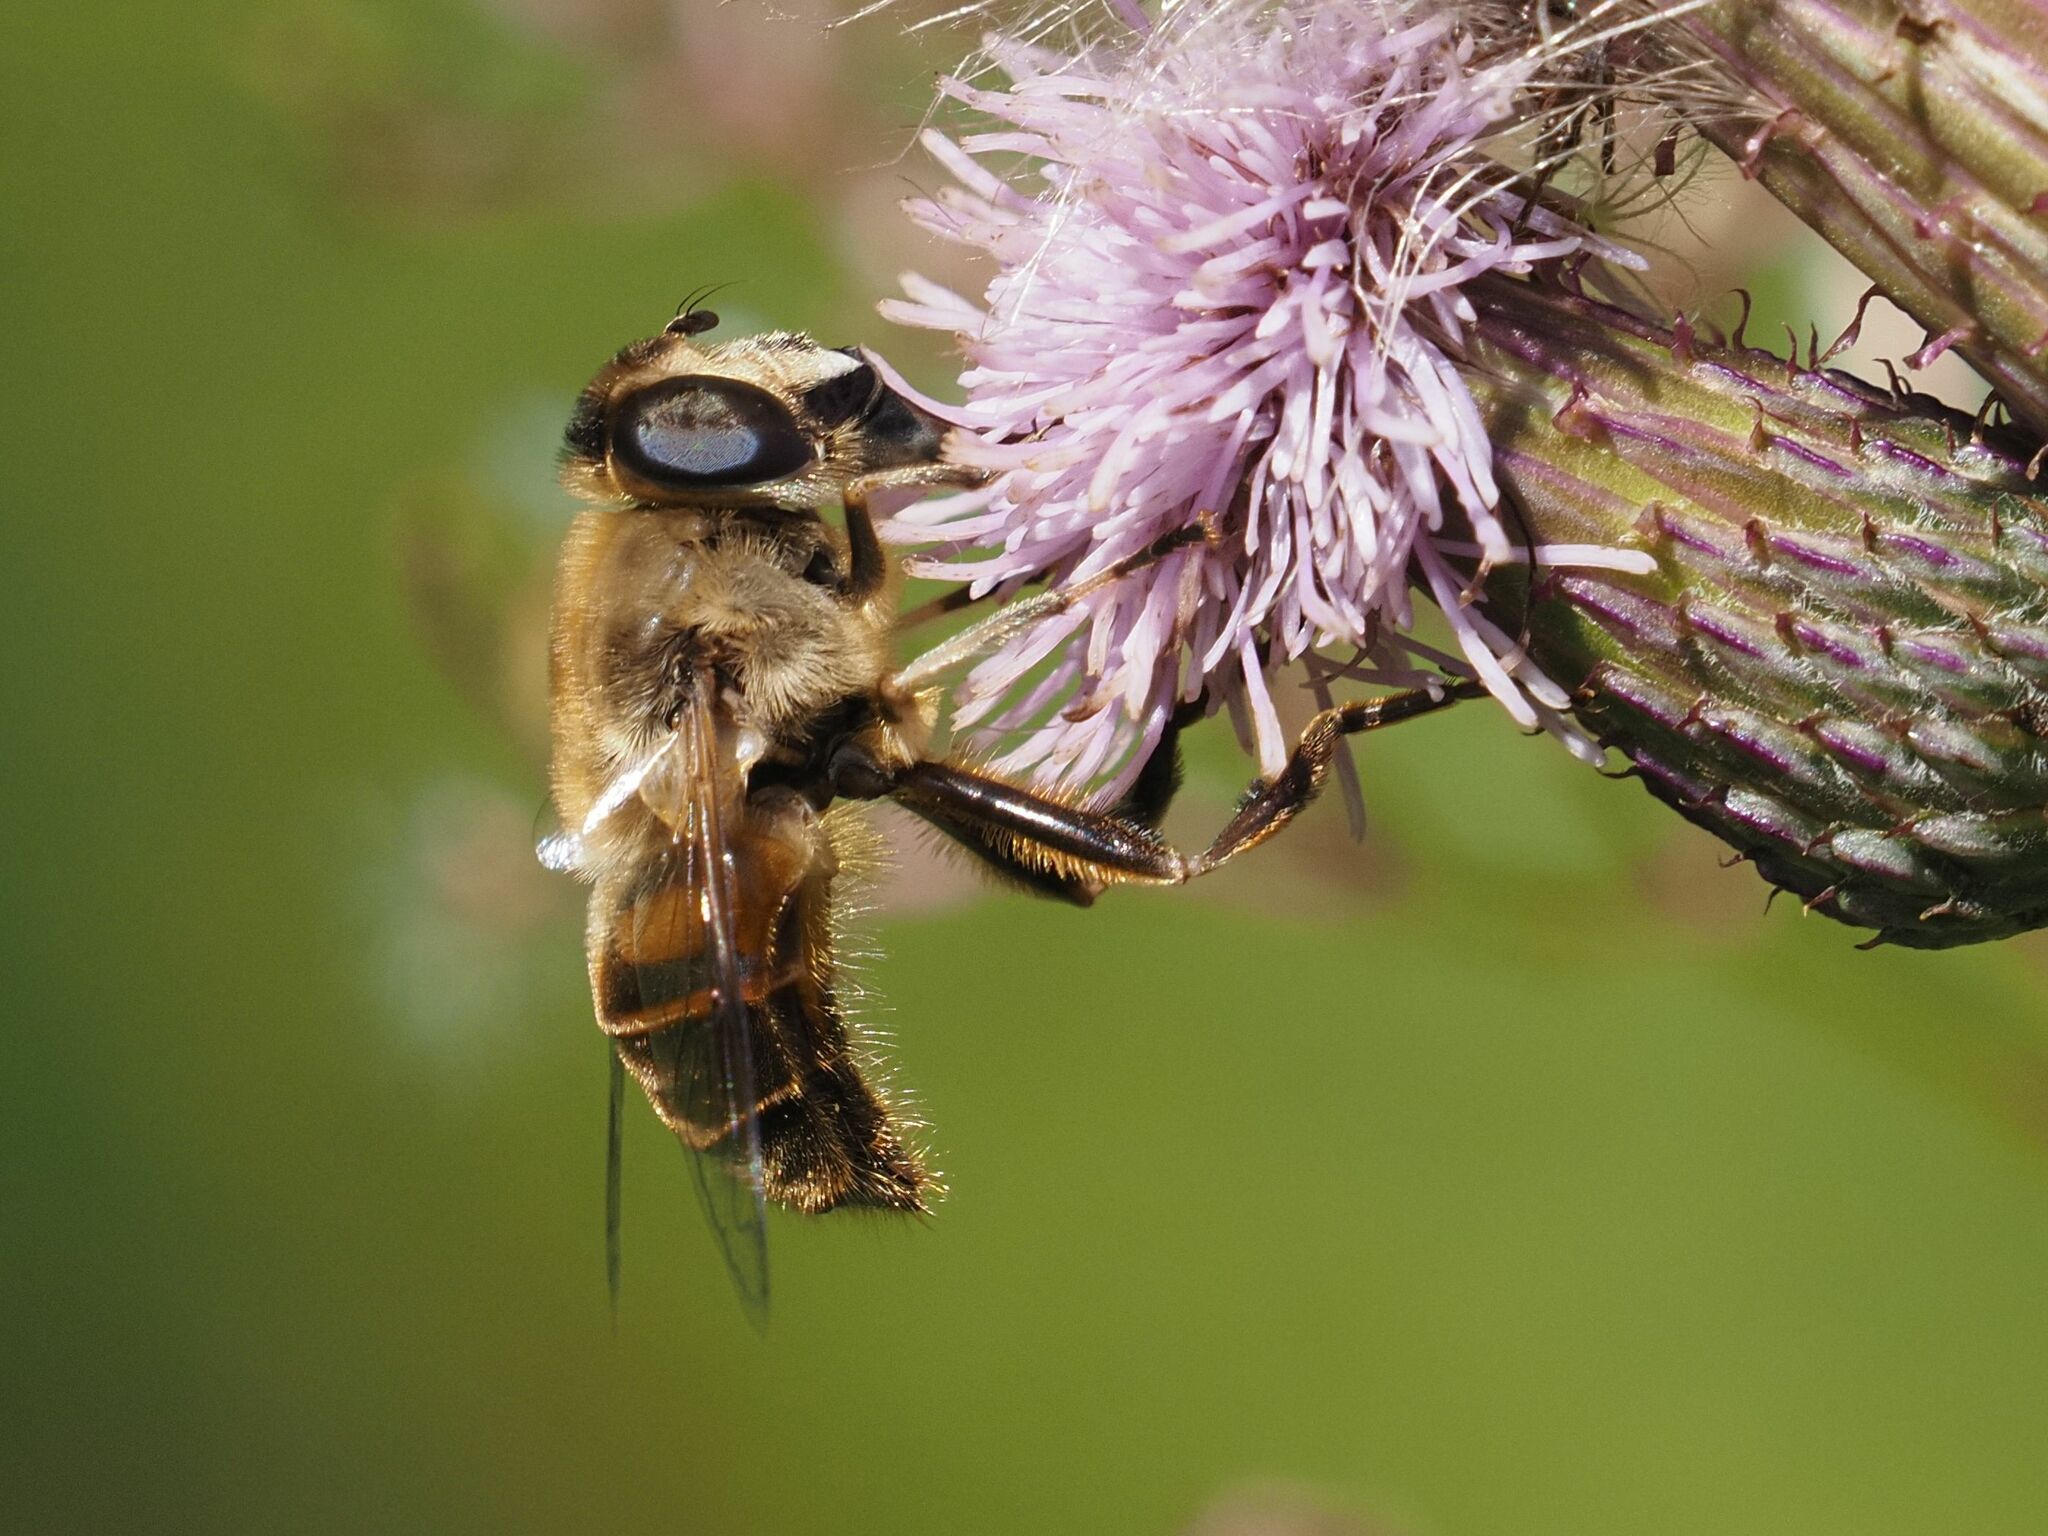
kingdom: Animalia
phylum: Arthropoda
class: Insecta
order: Diptera
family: Syrphidae
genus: Eristalis
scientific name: Eristalis tenax
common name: Drone fly
